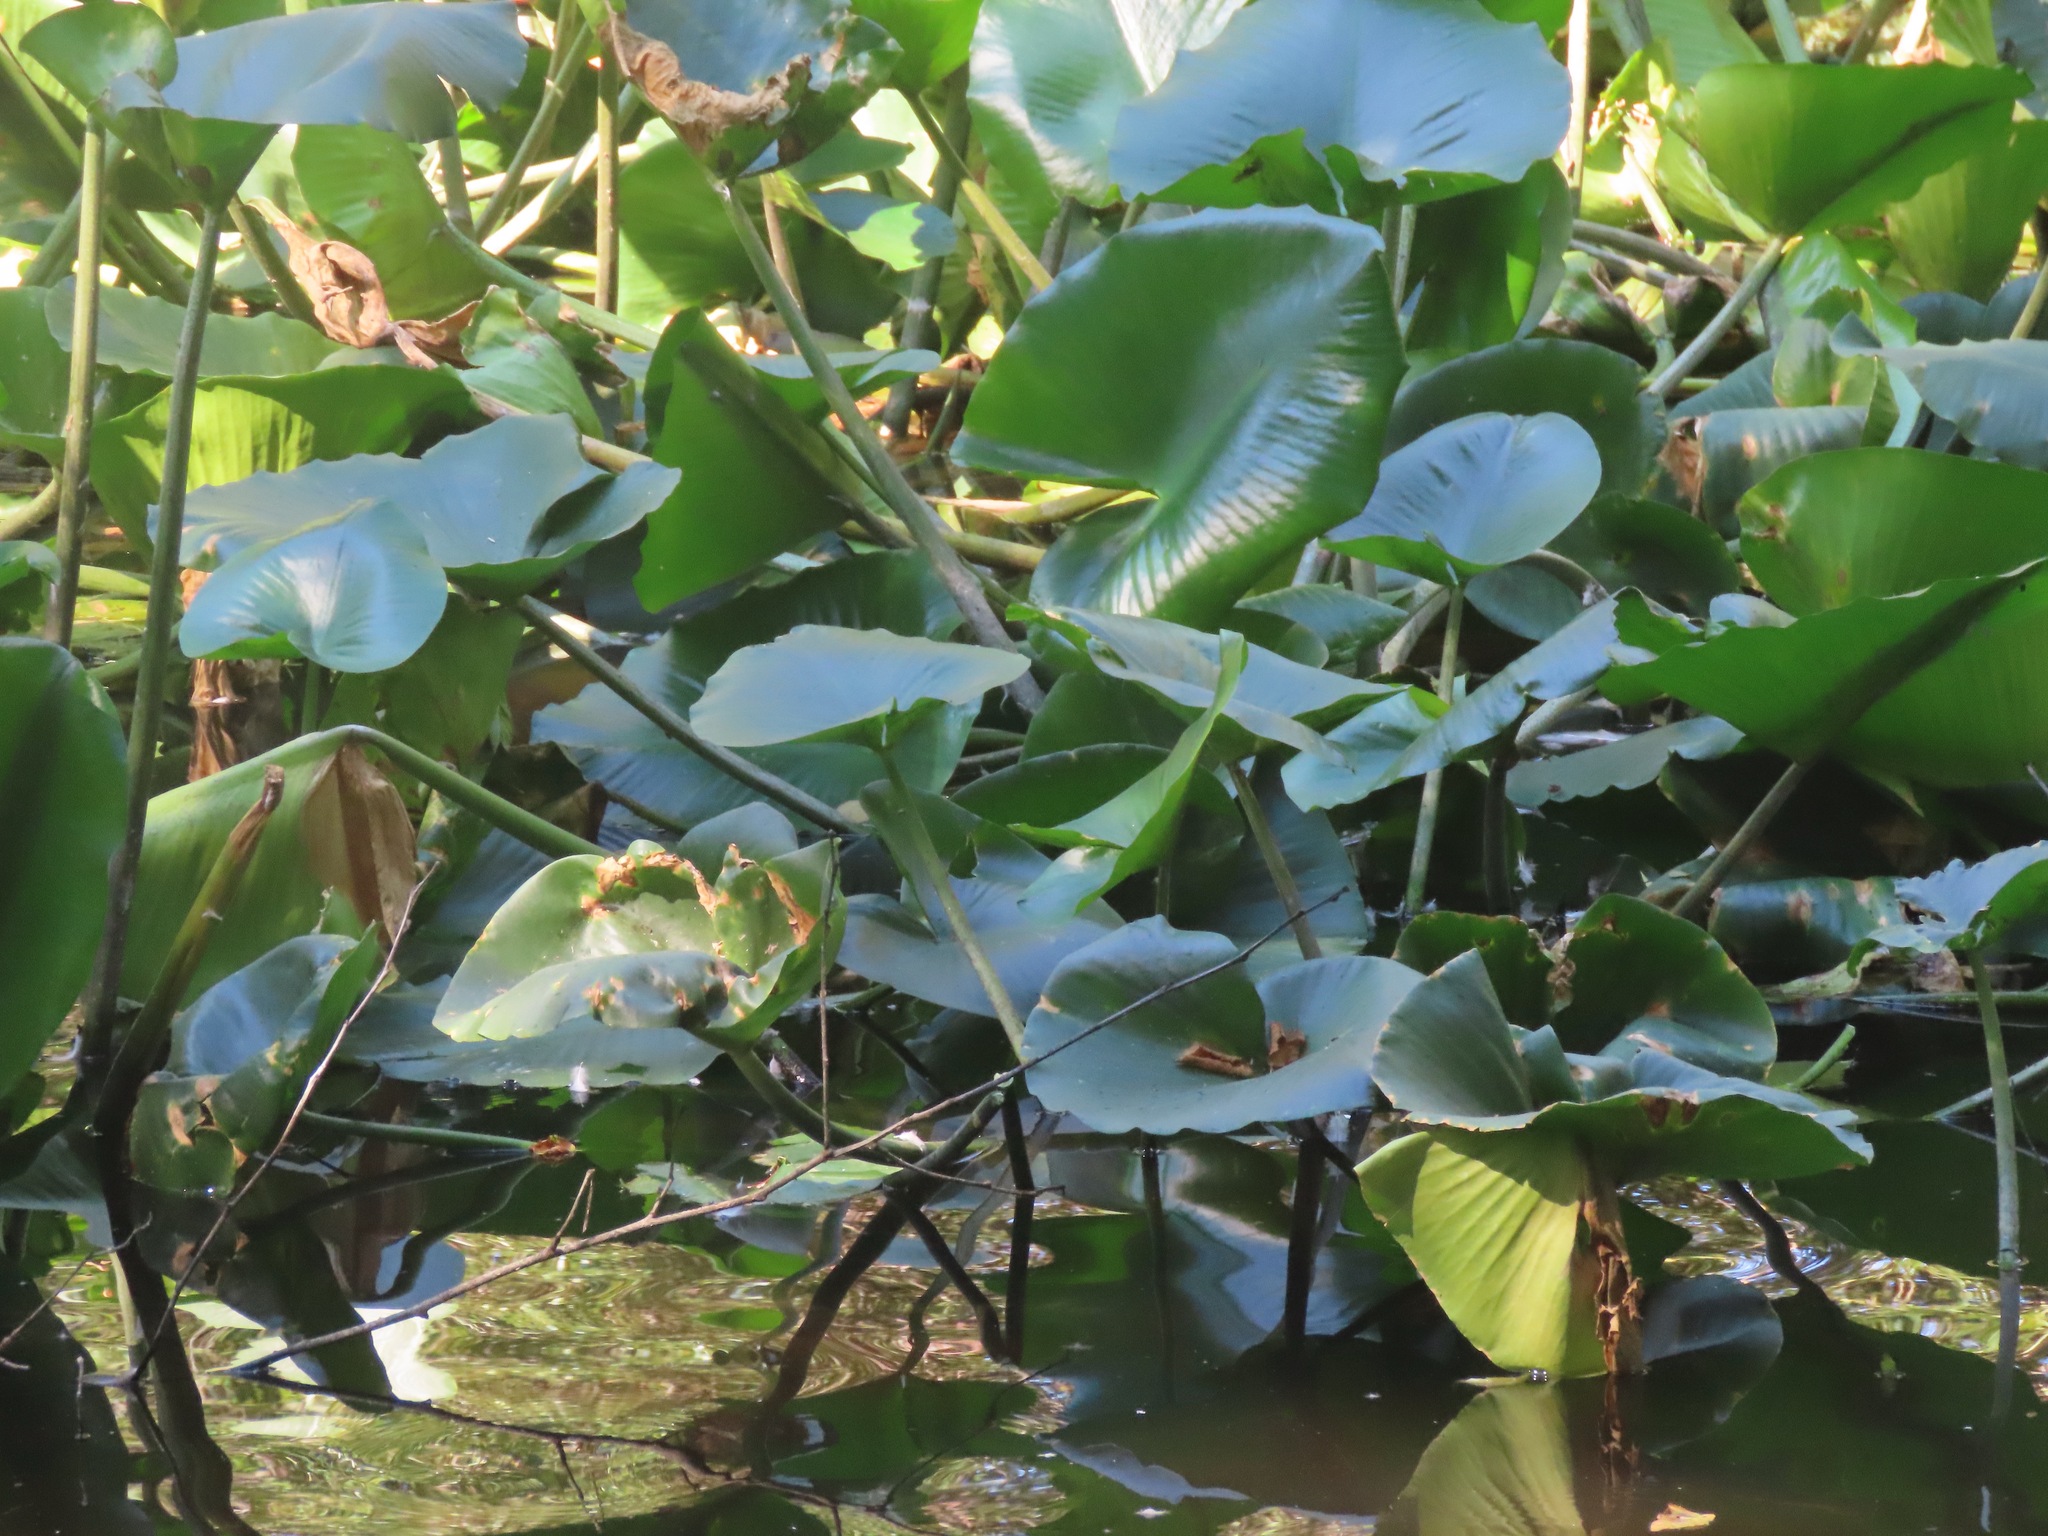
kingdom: Plantae
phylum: Tracheophyta
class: Magnoliopsida
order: Nymphaeales
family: Nymphaeaceae
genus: Nuphar
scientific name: Nuphar polysepala
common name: Rocky mountain cow-lily
